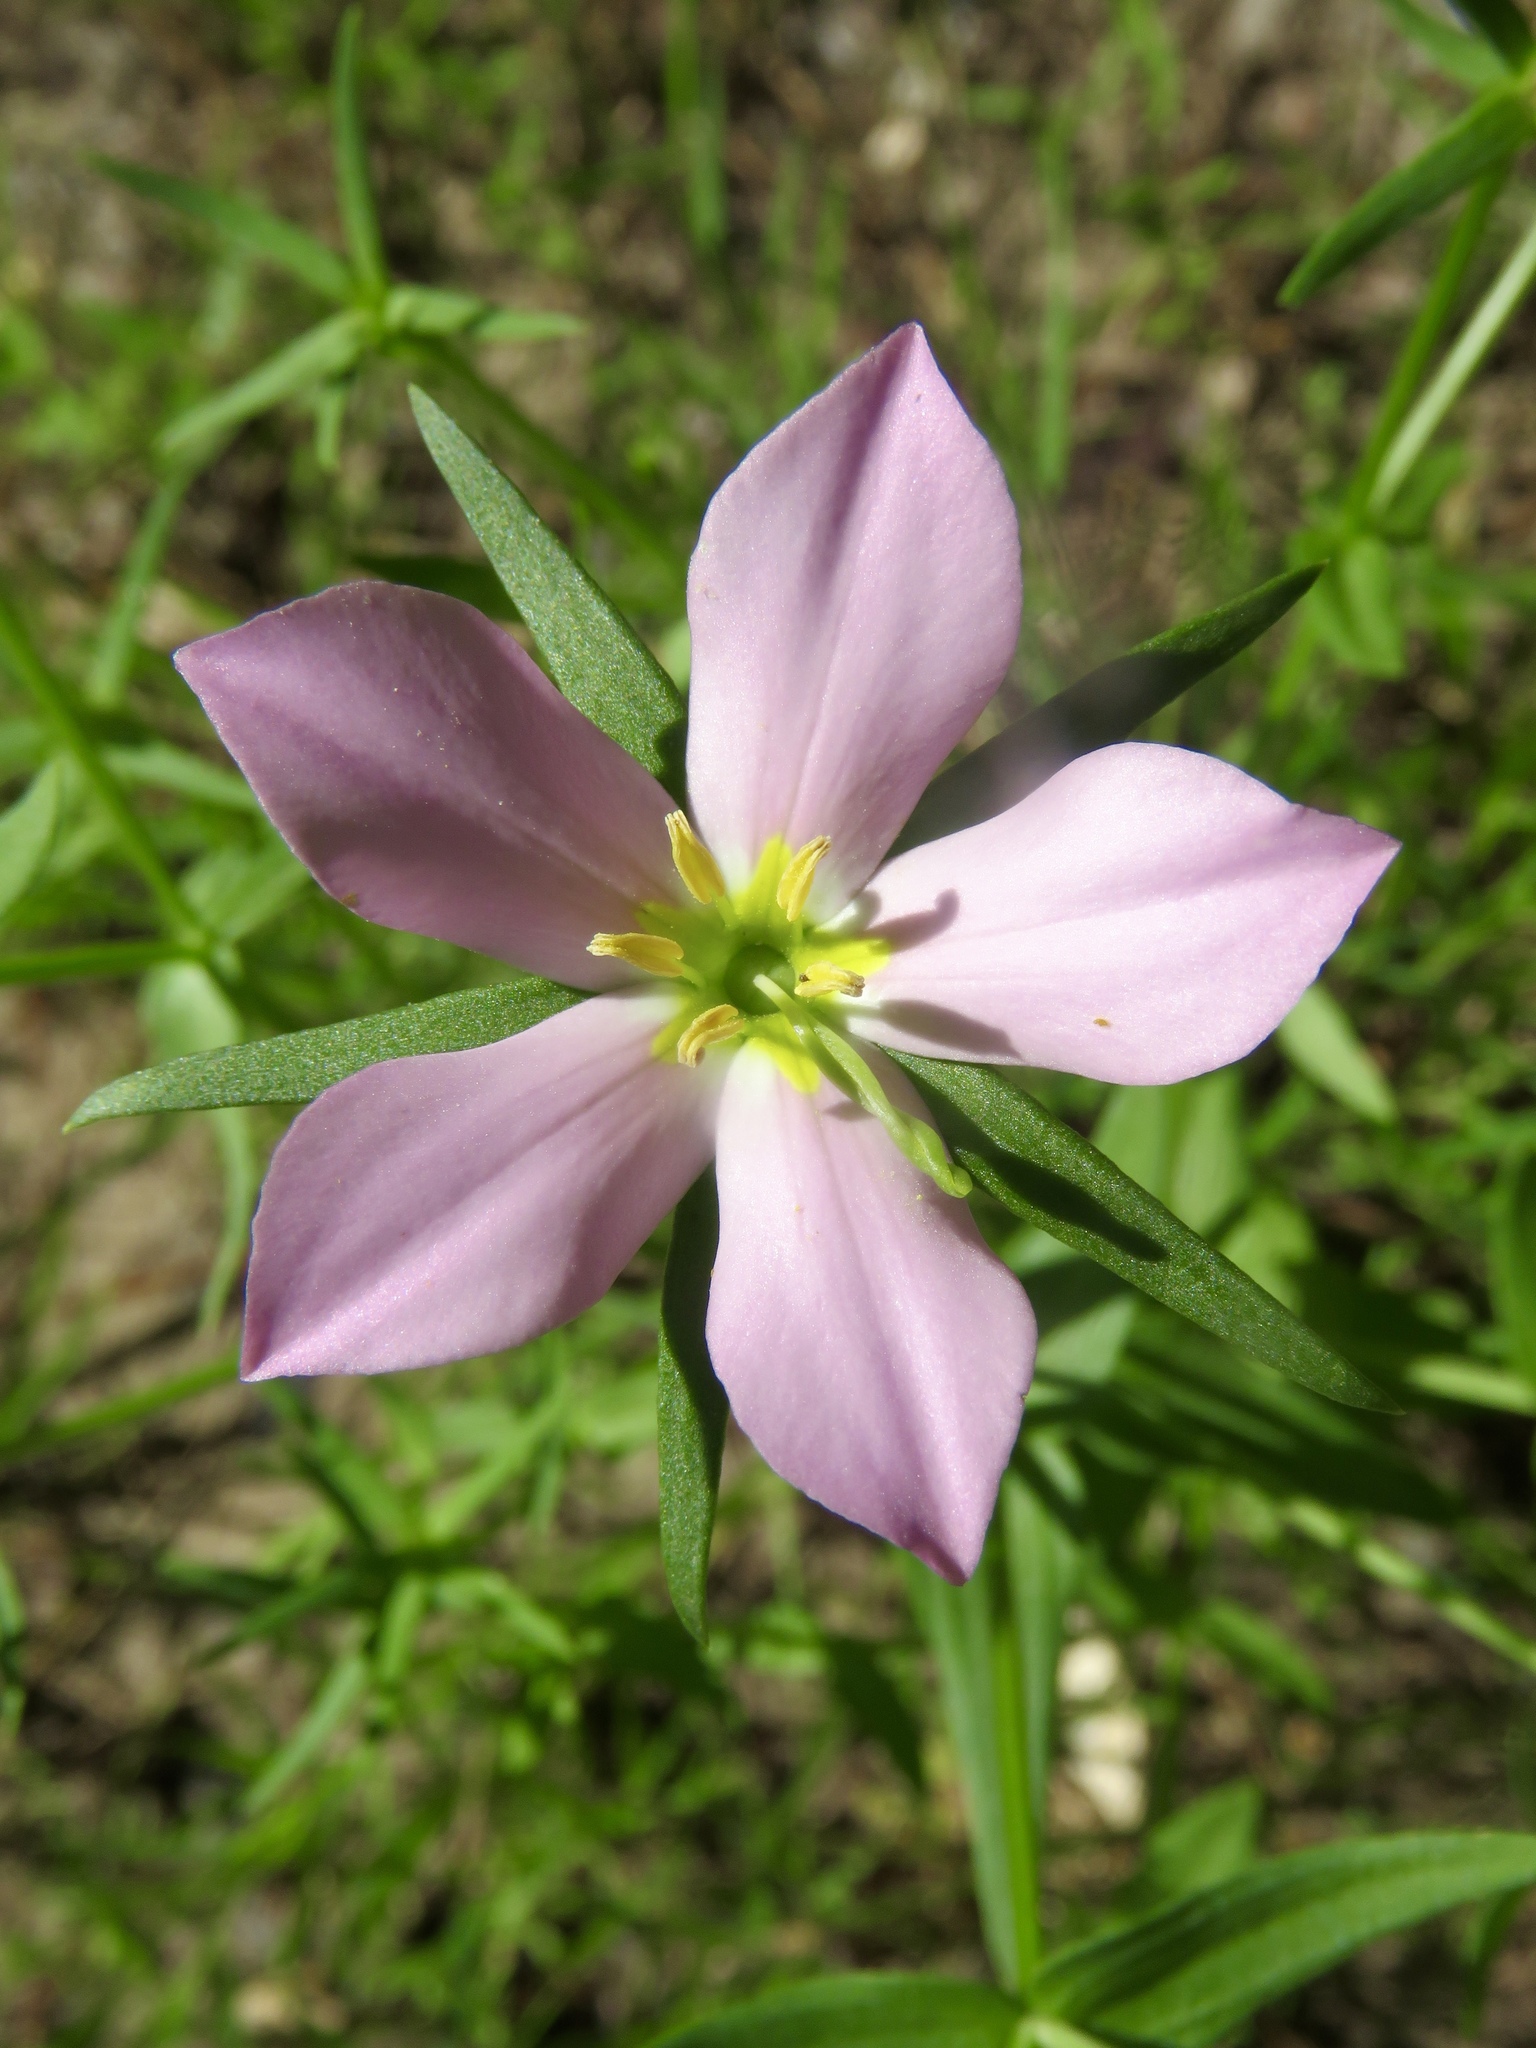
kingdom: Plantae
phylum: Tracheophyta
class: Magnoliopsida
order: Gentianales
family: Gentianaceae
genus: Sabatia
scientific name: Sabatia campestris
